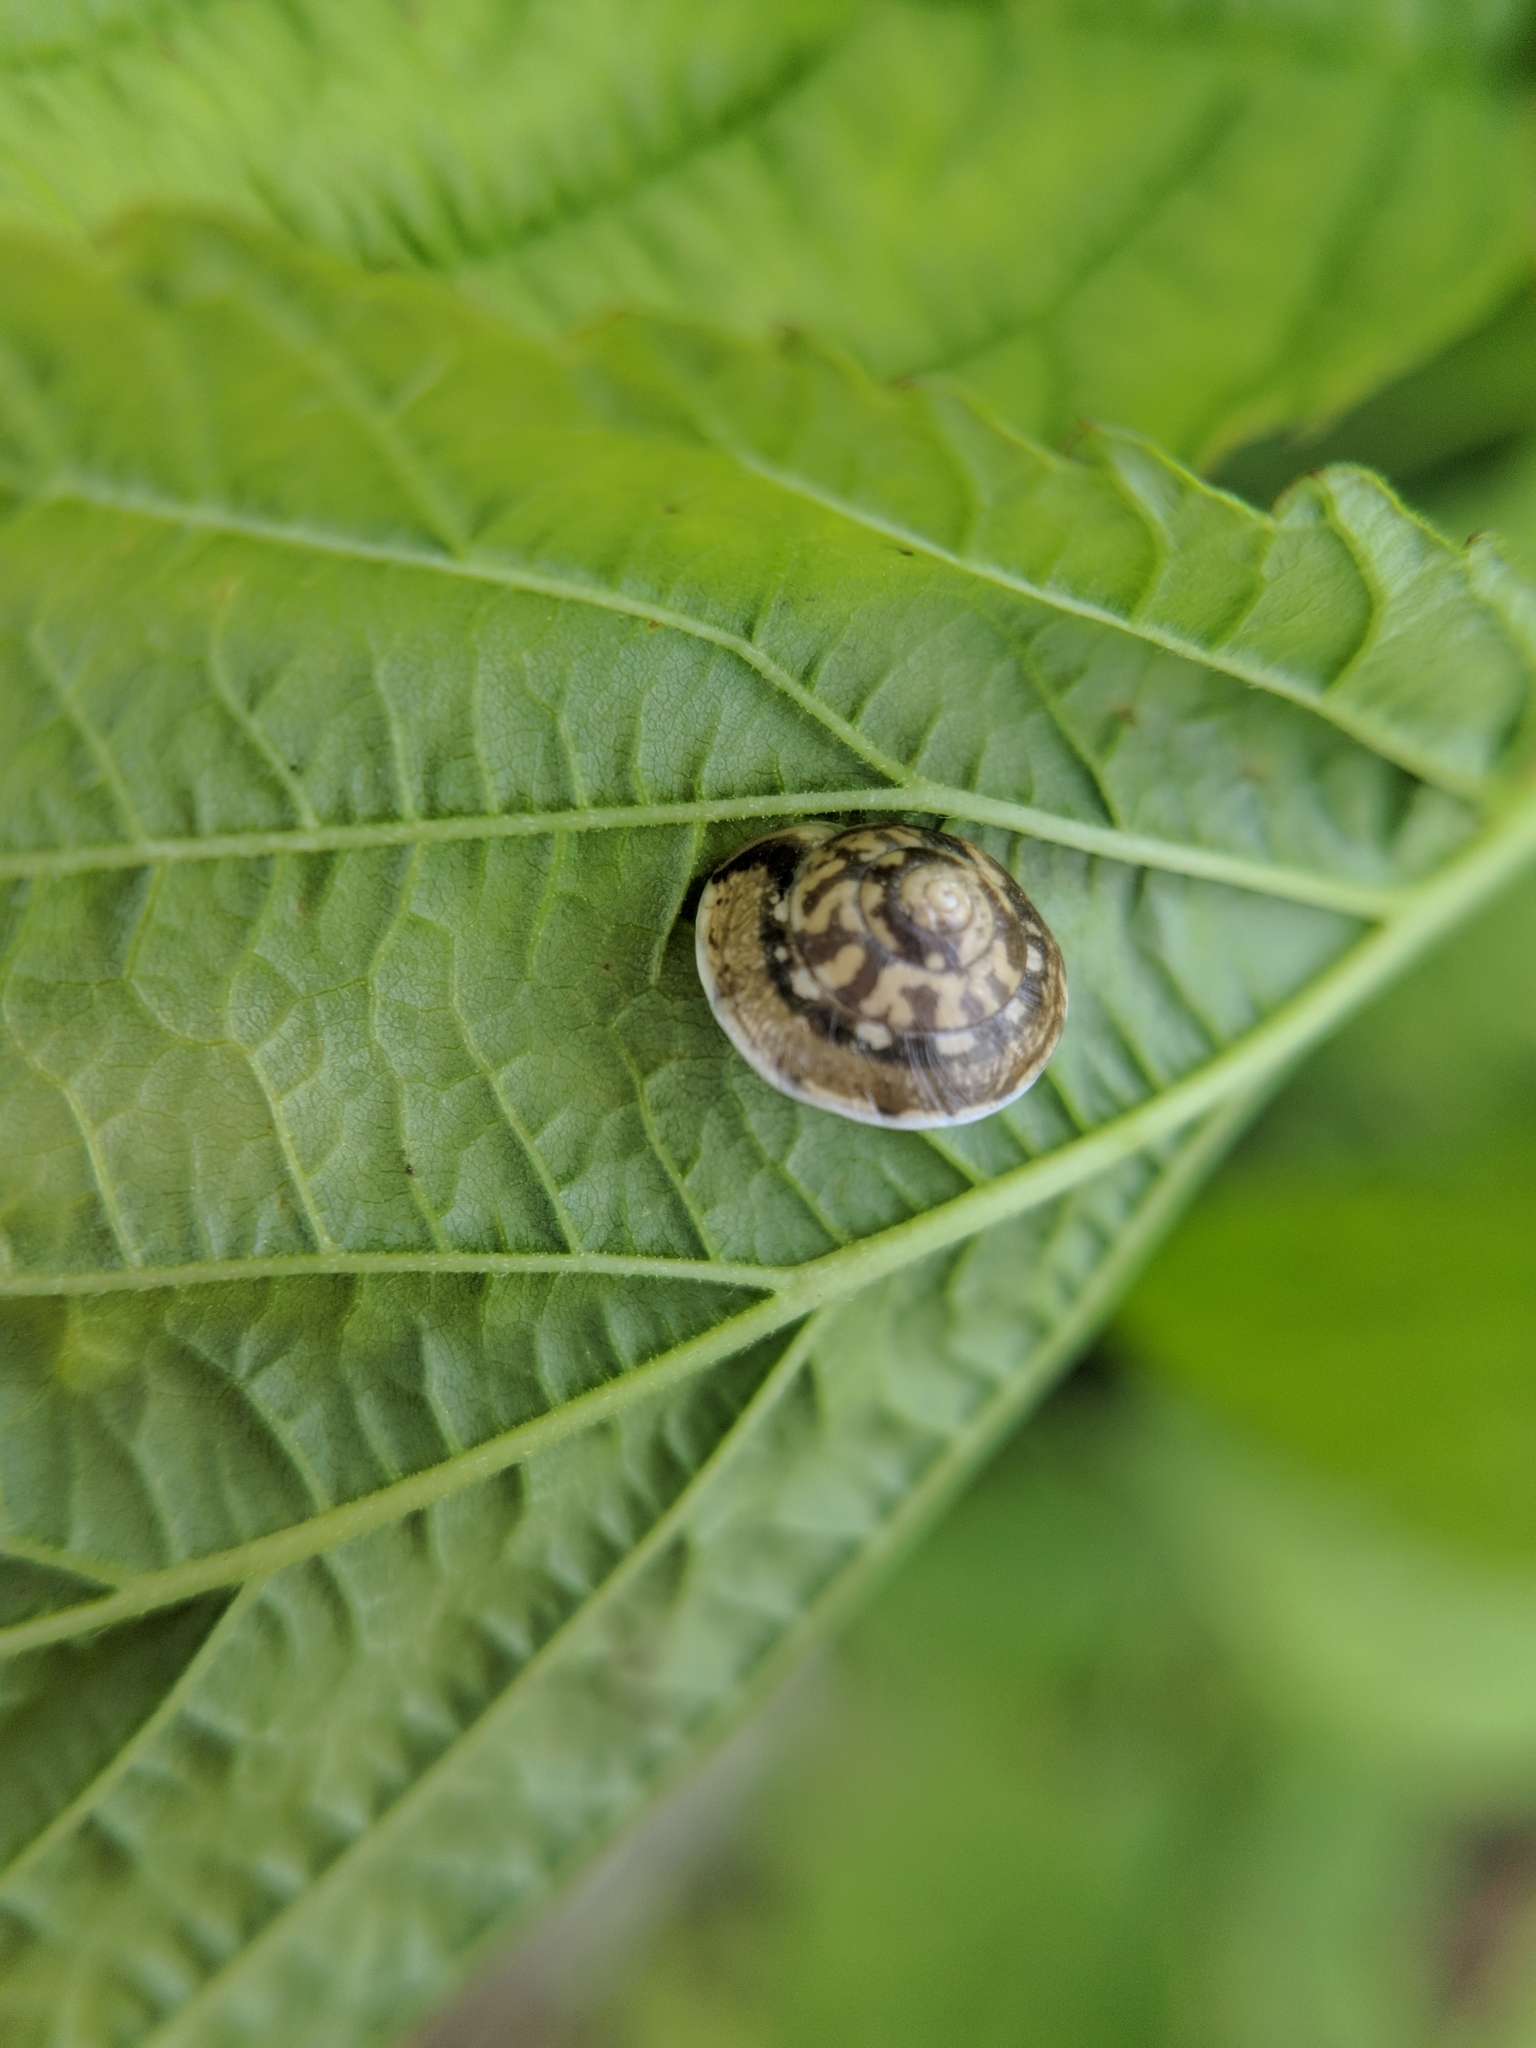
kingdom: Animalia
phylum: Mollusca
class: Gastropoda
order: Stylommatophora
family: Hygromiidae
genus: Hygromia
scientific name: Hygromia cinctella
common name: Girdled snail
